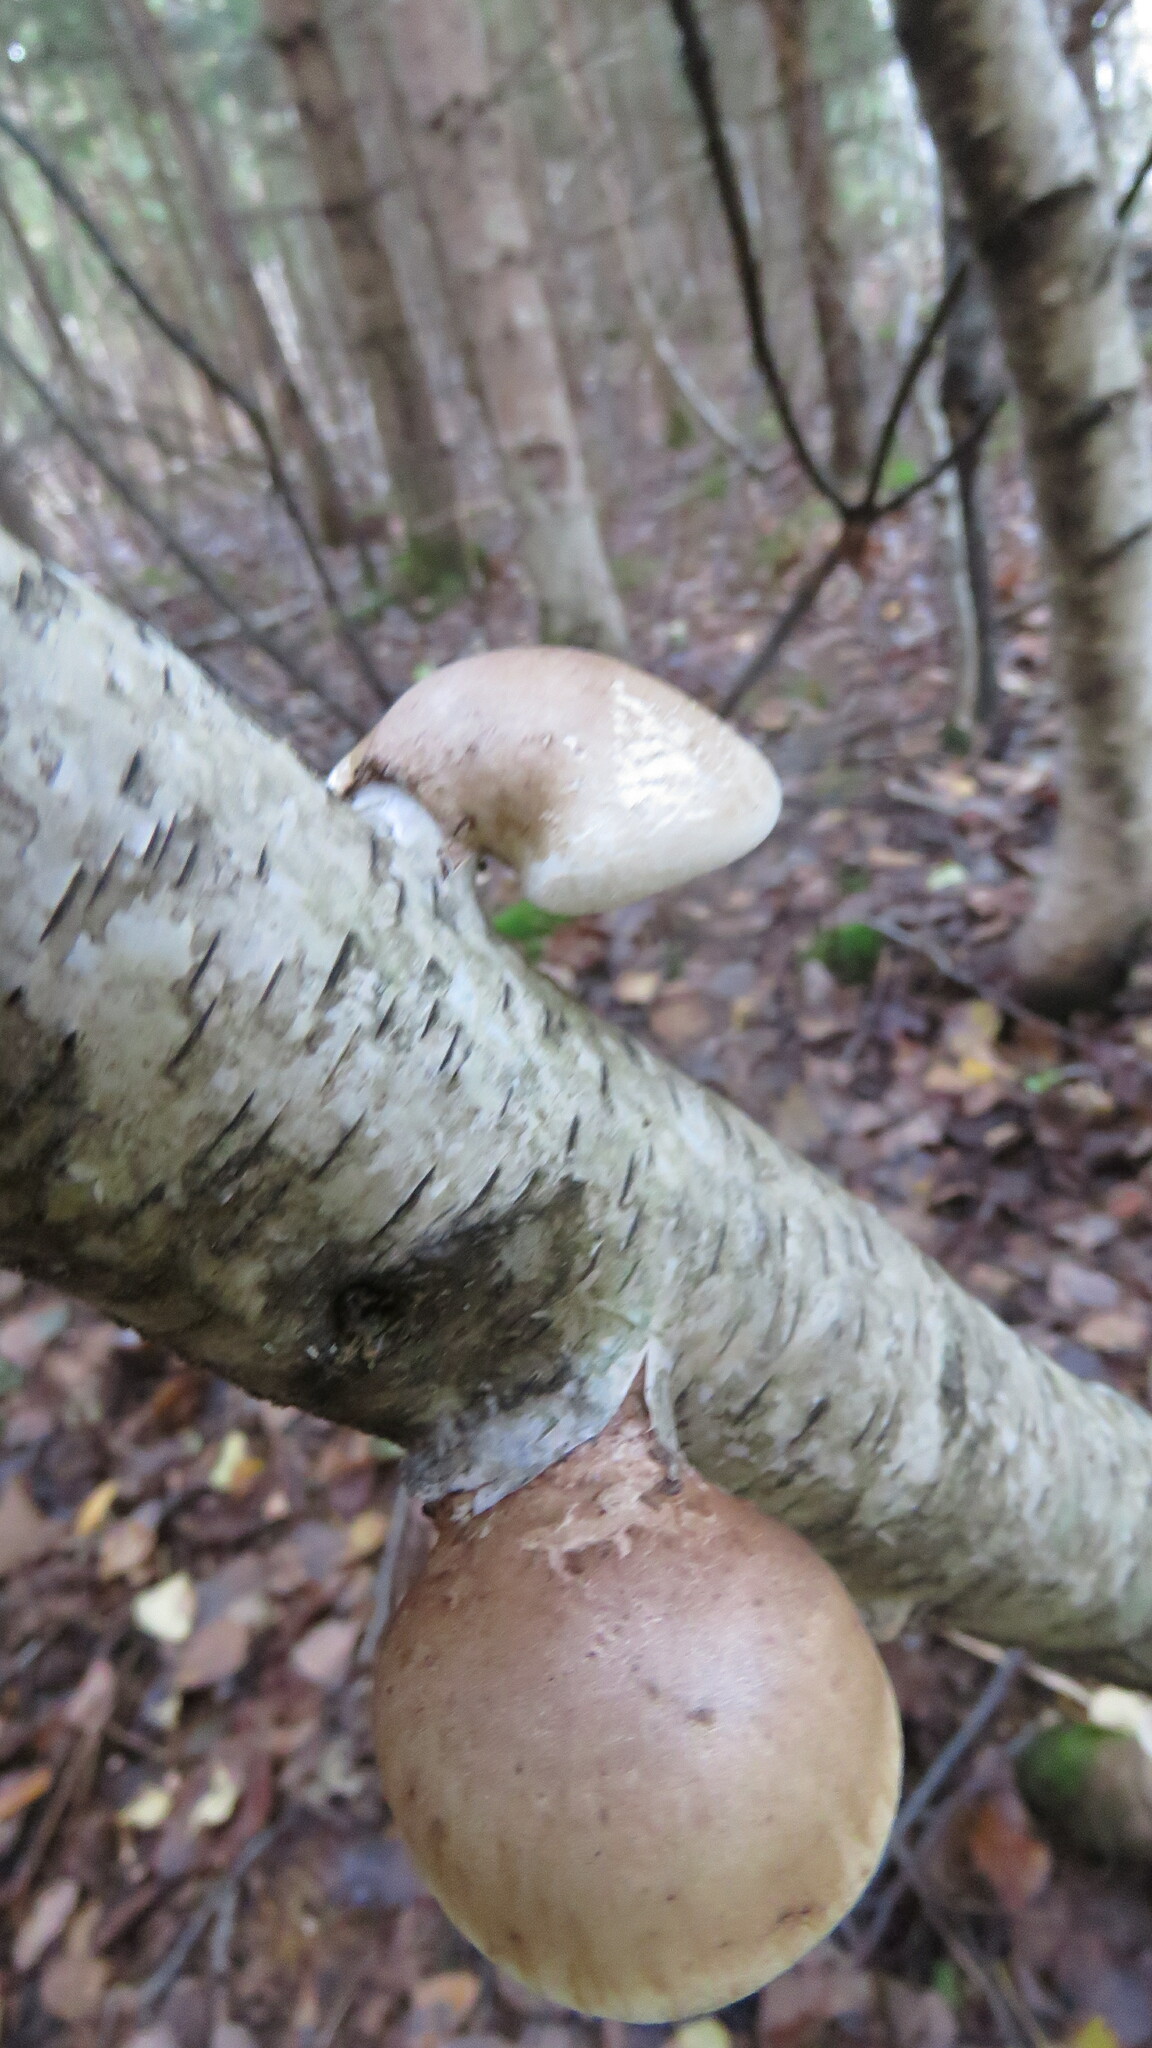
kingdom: Fungi
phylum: Basidiomycota
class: Agaricomycetes
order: Polyporales
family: Fomitopsidaceae
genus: Fomitopsis
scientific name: Fomitopsis betulina
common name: Birch polypore
